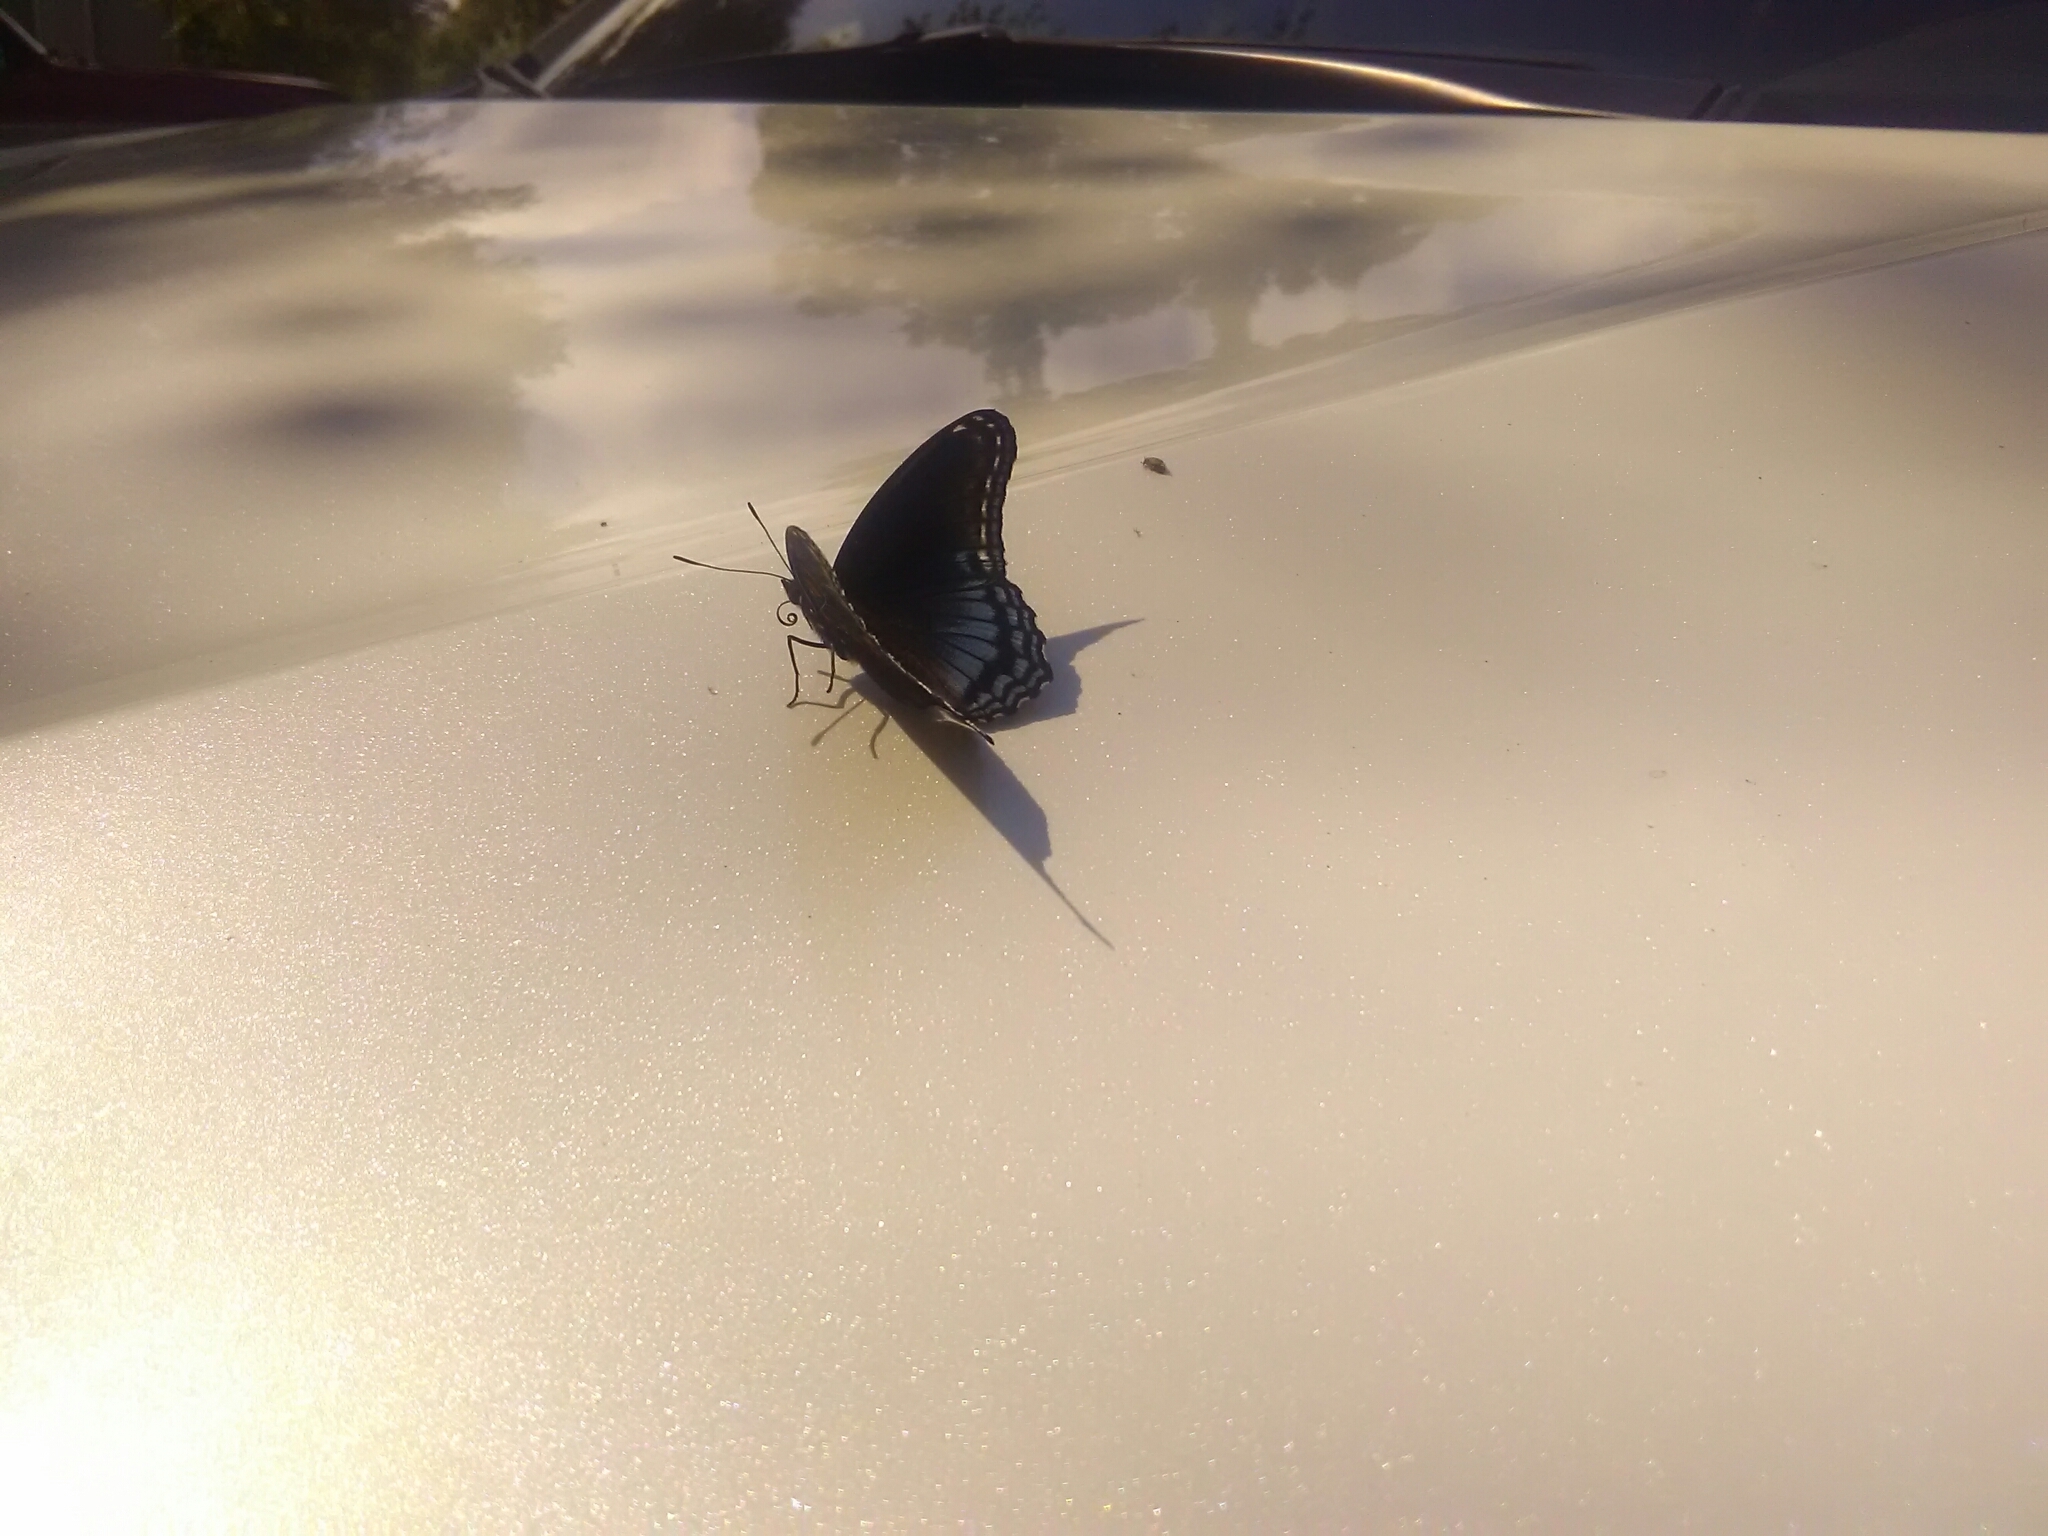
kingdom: Animalia
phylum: Arthropoda
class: Insecta
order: Lepidoptera
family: Nymphalidae
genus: Limenitis
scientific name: Limenitis astyanax
